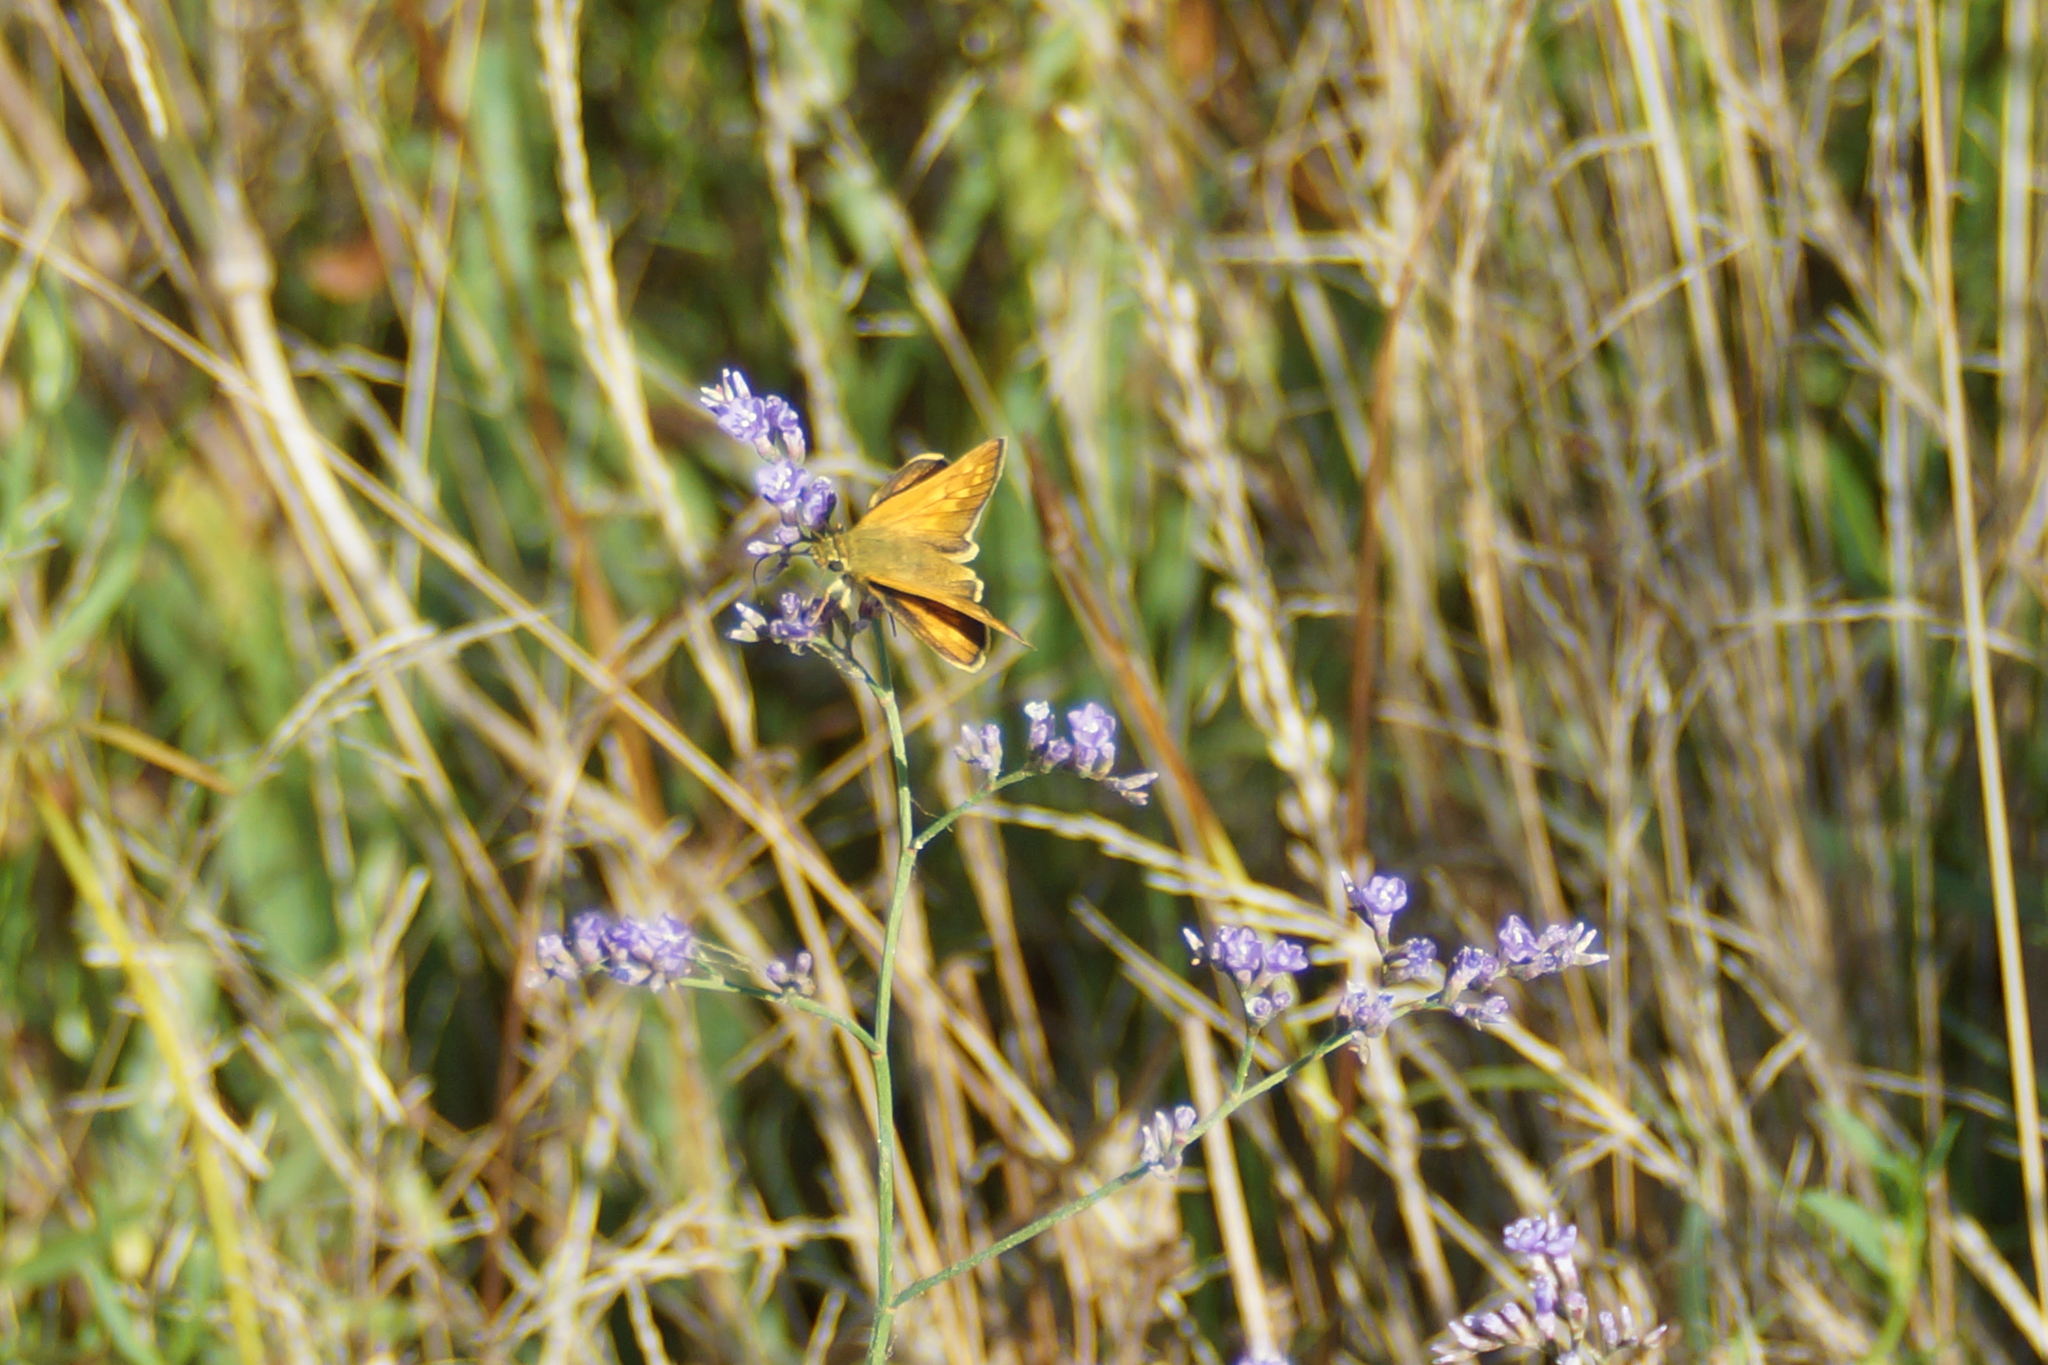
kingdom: Animalia
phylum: Arthropoda
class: Insecta
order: Lepidoptera
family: Hesperiidae
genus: Ochlodes
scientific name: Ochlodes venata
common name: Large skipper
